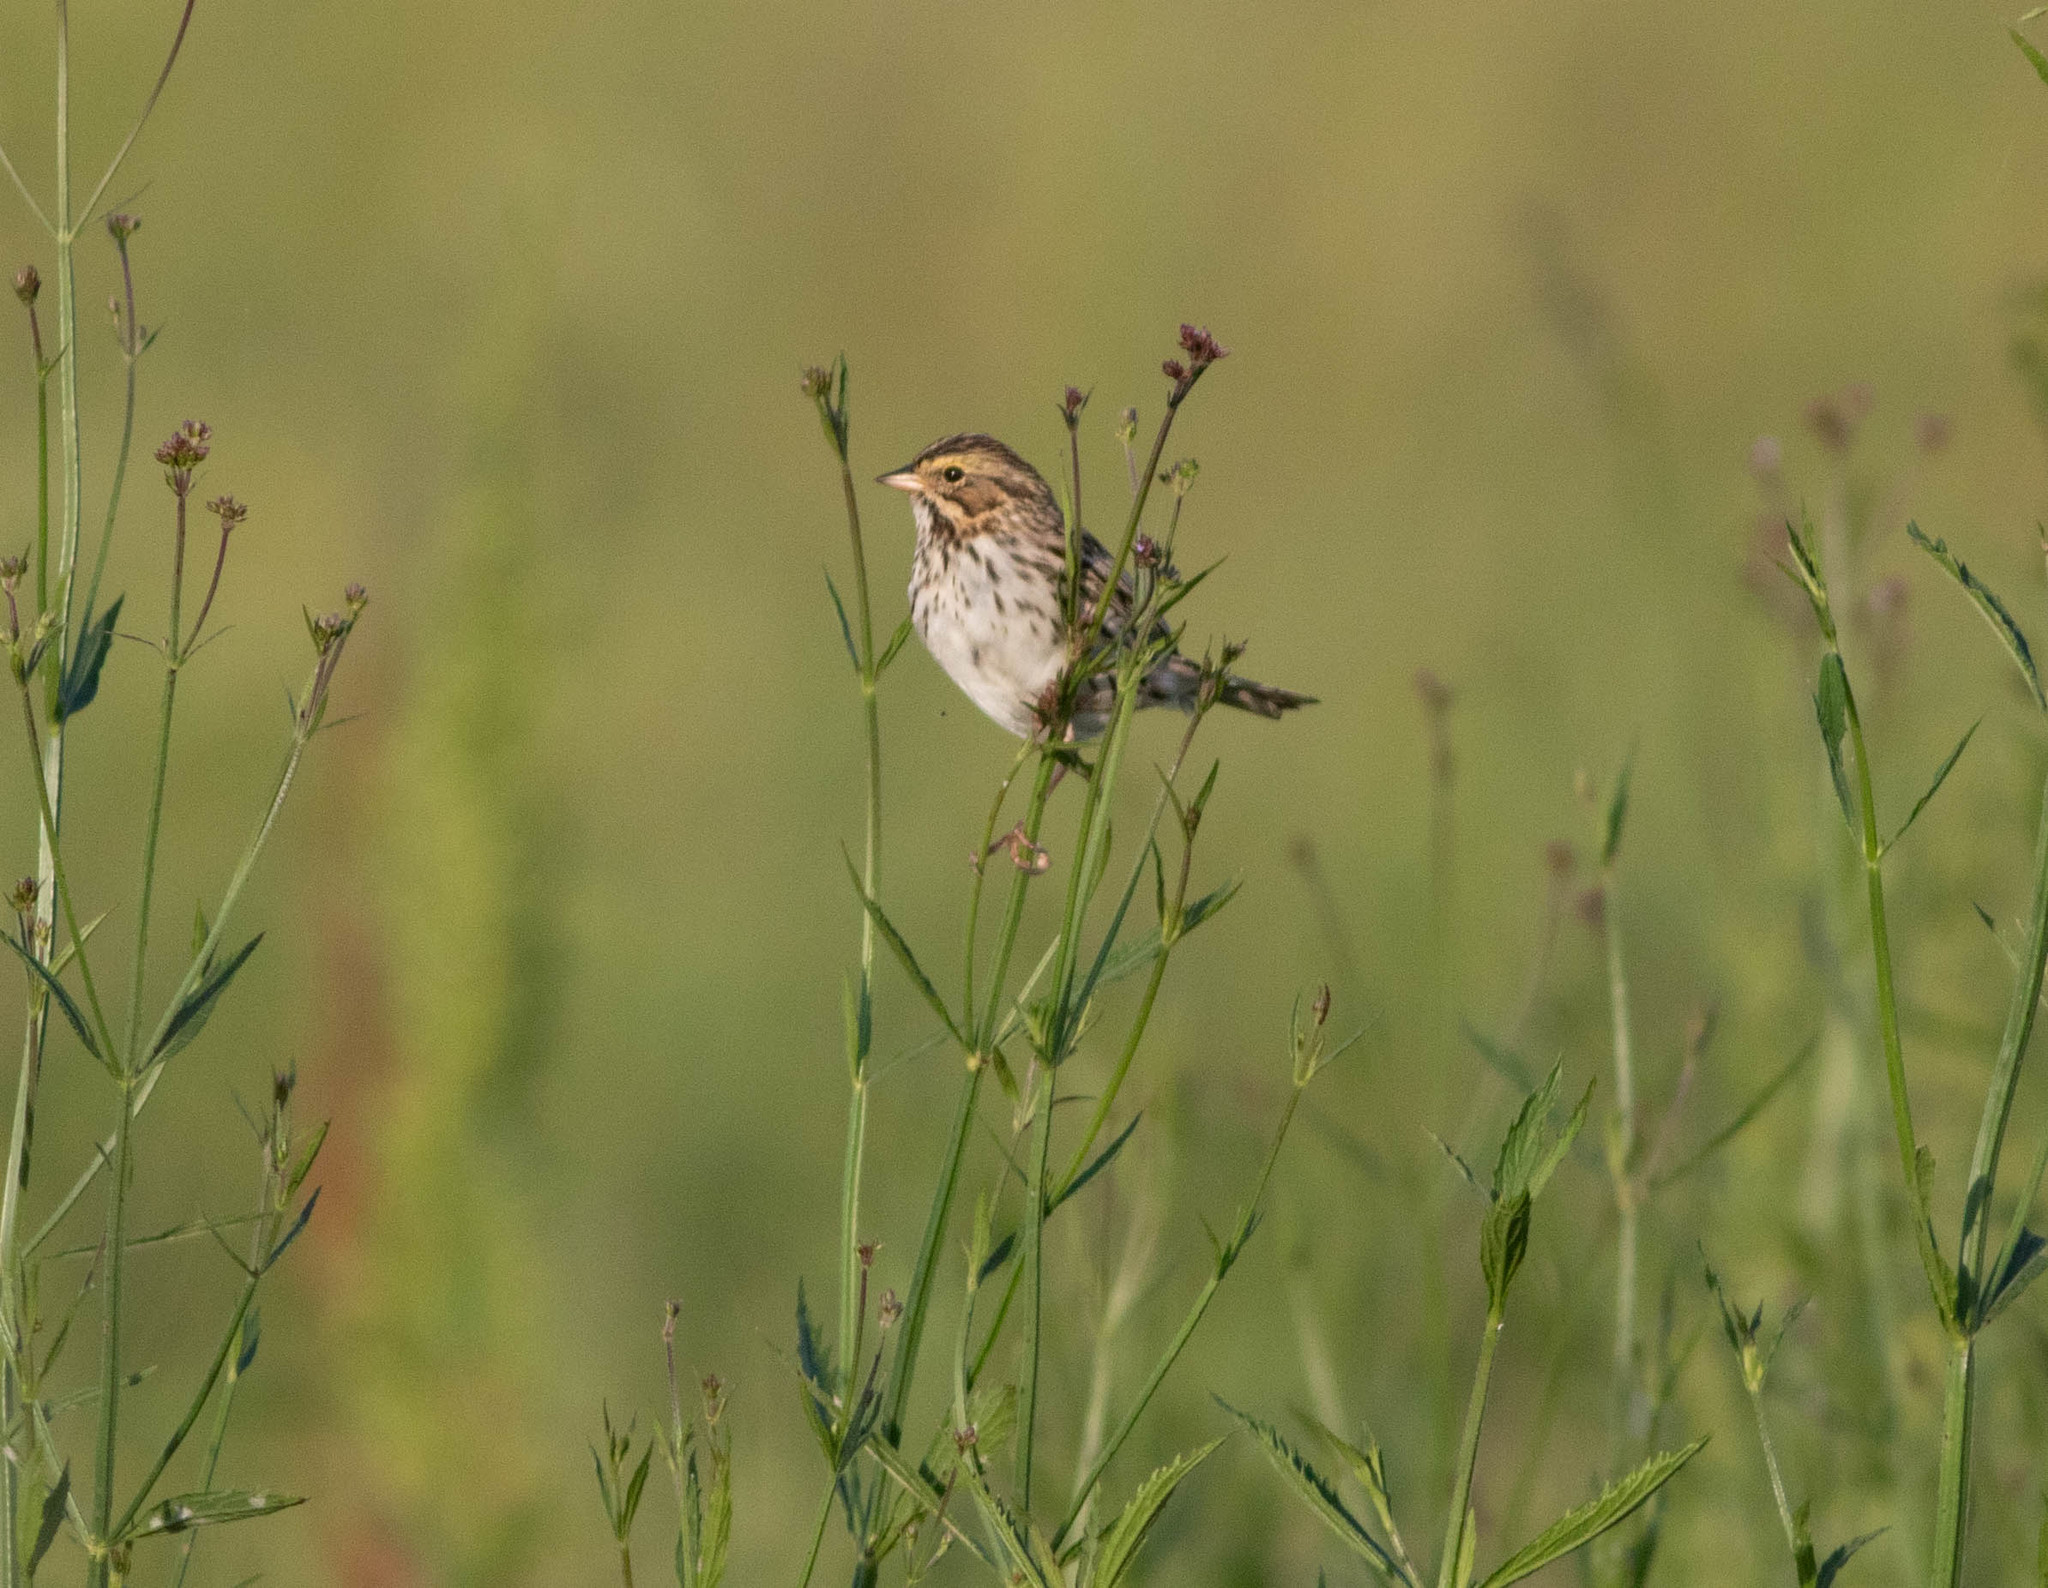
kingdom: Animalia
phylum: Chordata
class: Aves
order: Passeriformes
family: Passerellidae
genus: Passerculus
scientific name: Passerculus sandwichensis
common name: Savannah sparrow
